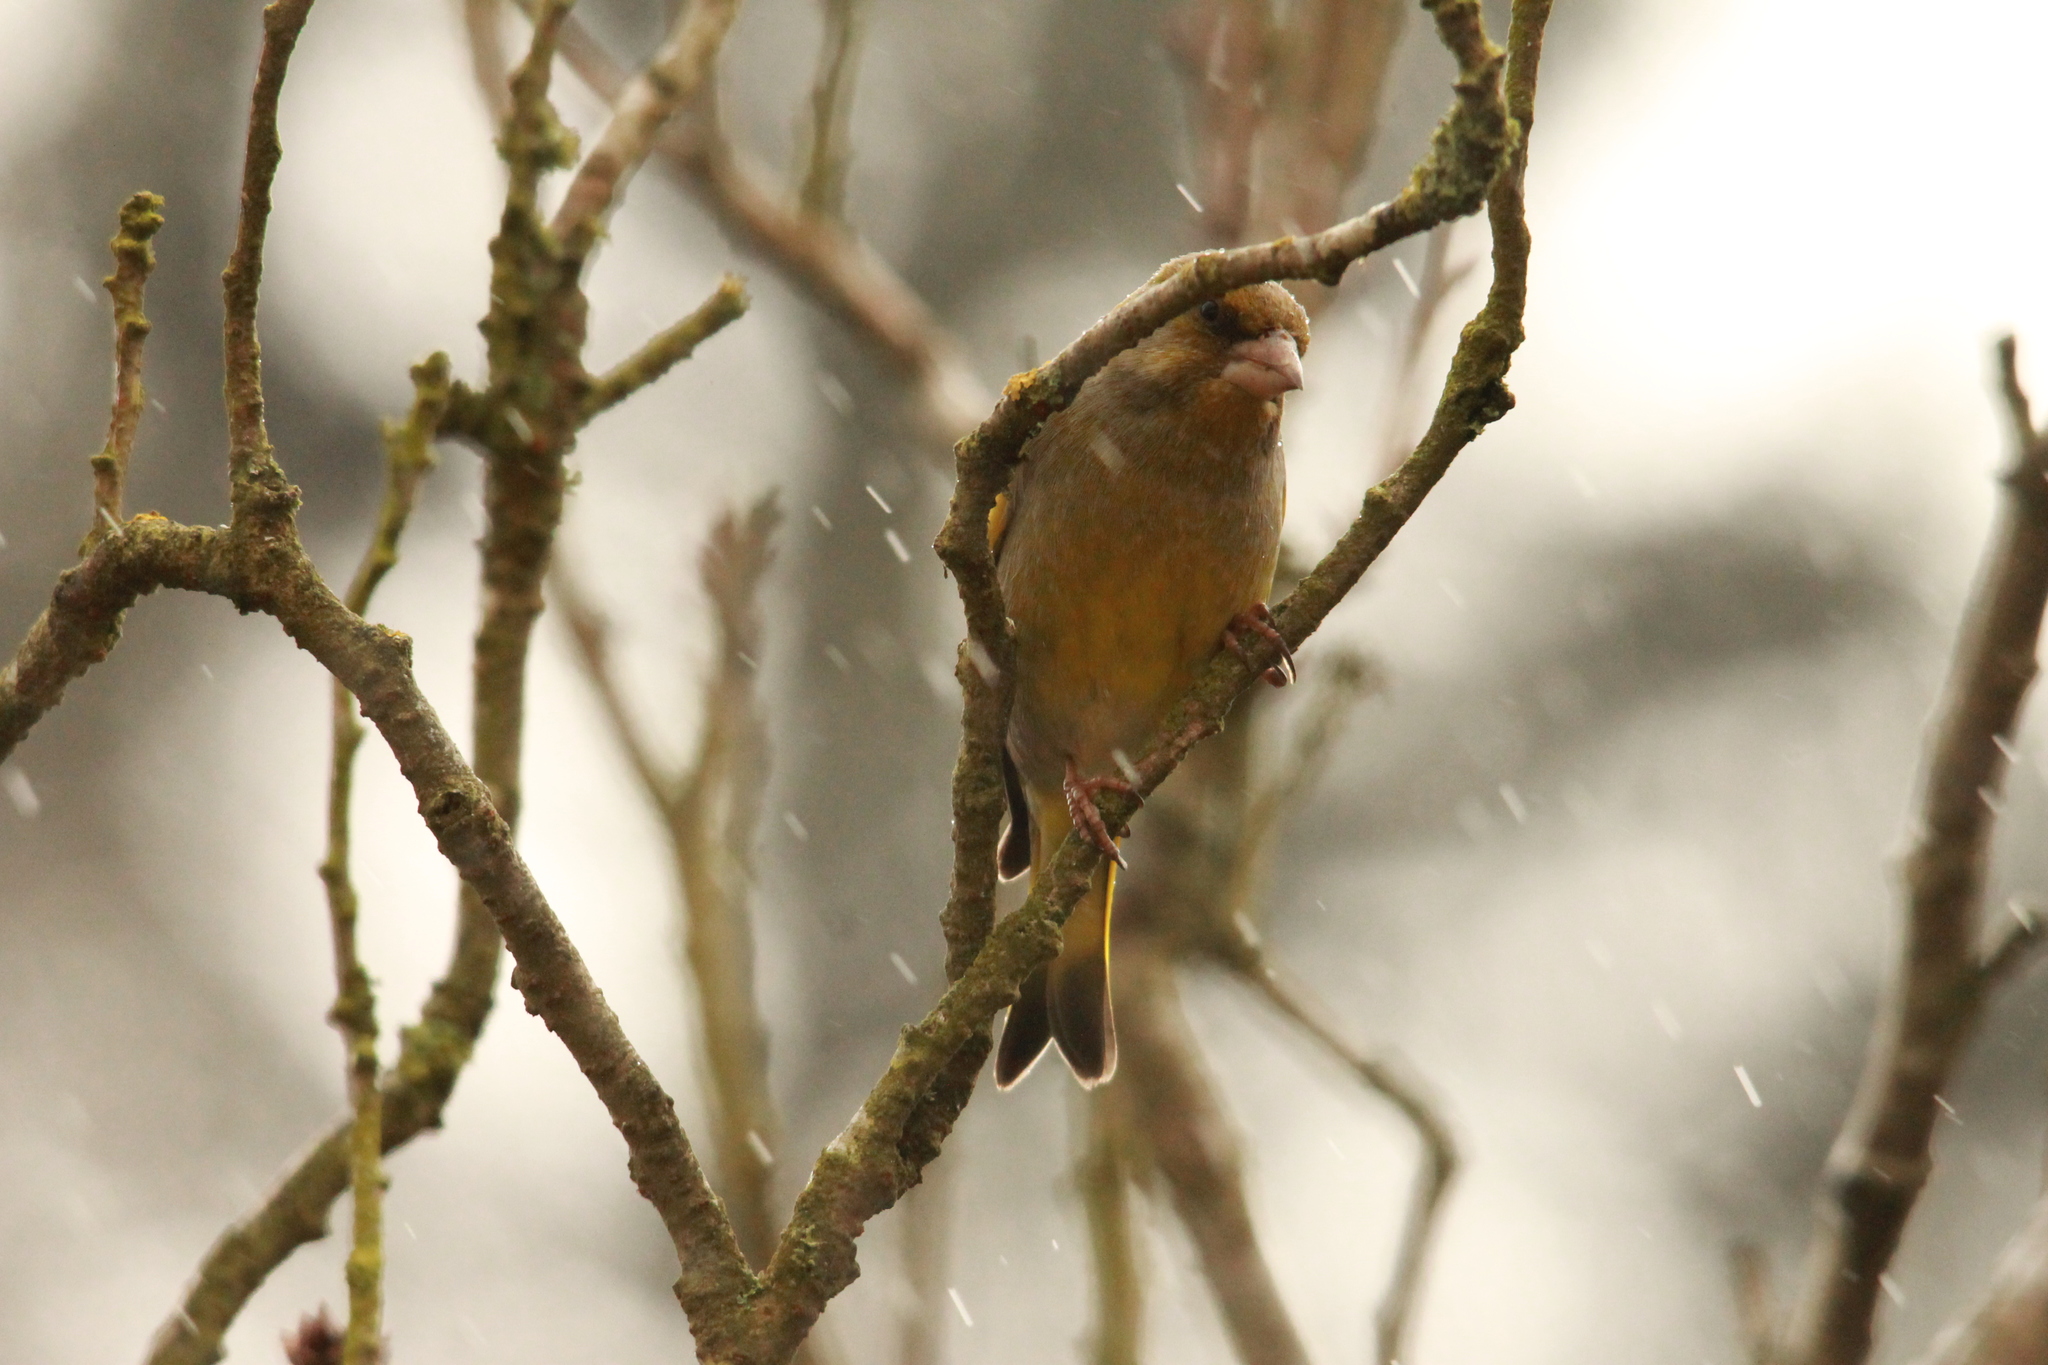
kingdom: Plantae
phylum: Tracheophyta
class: Liliopsida
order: Poales
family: Poaceae
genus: Chloris
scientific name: Chloris chloris
